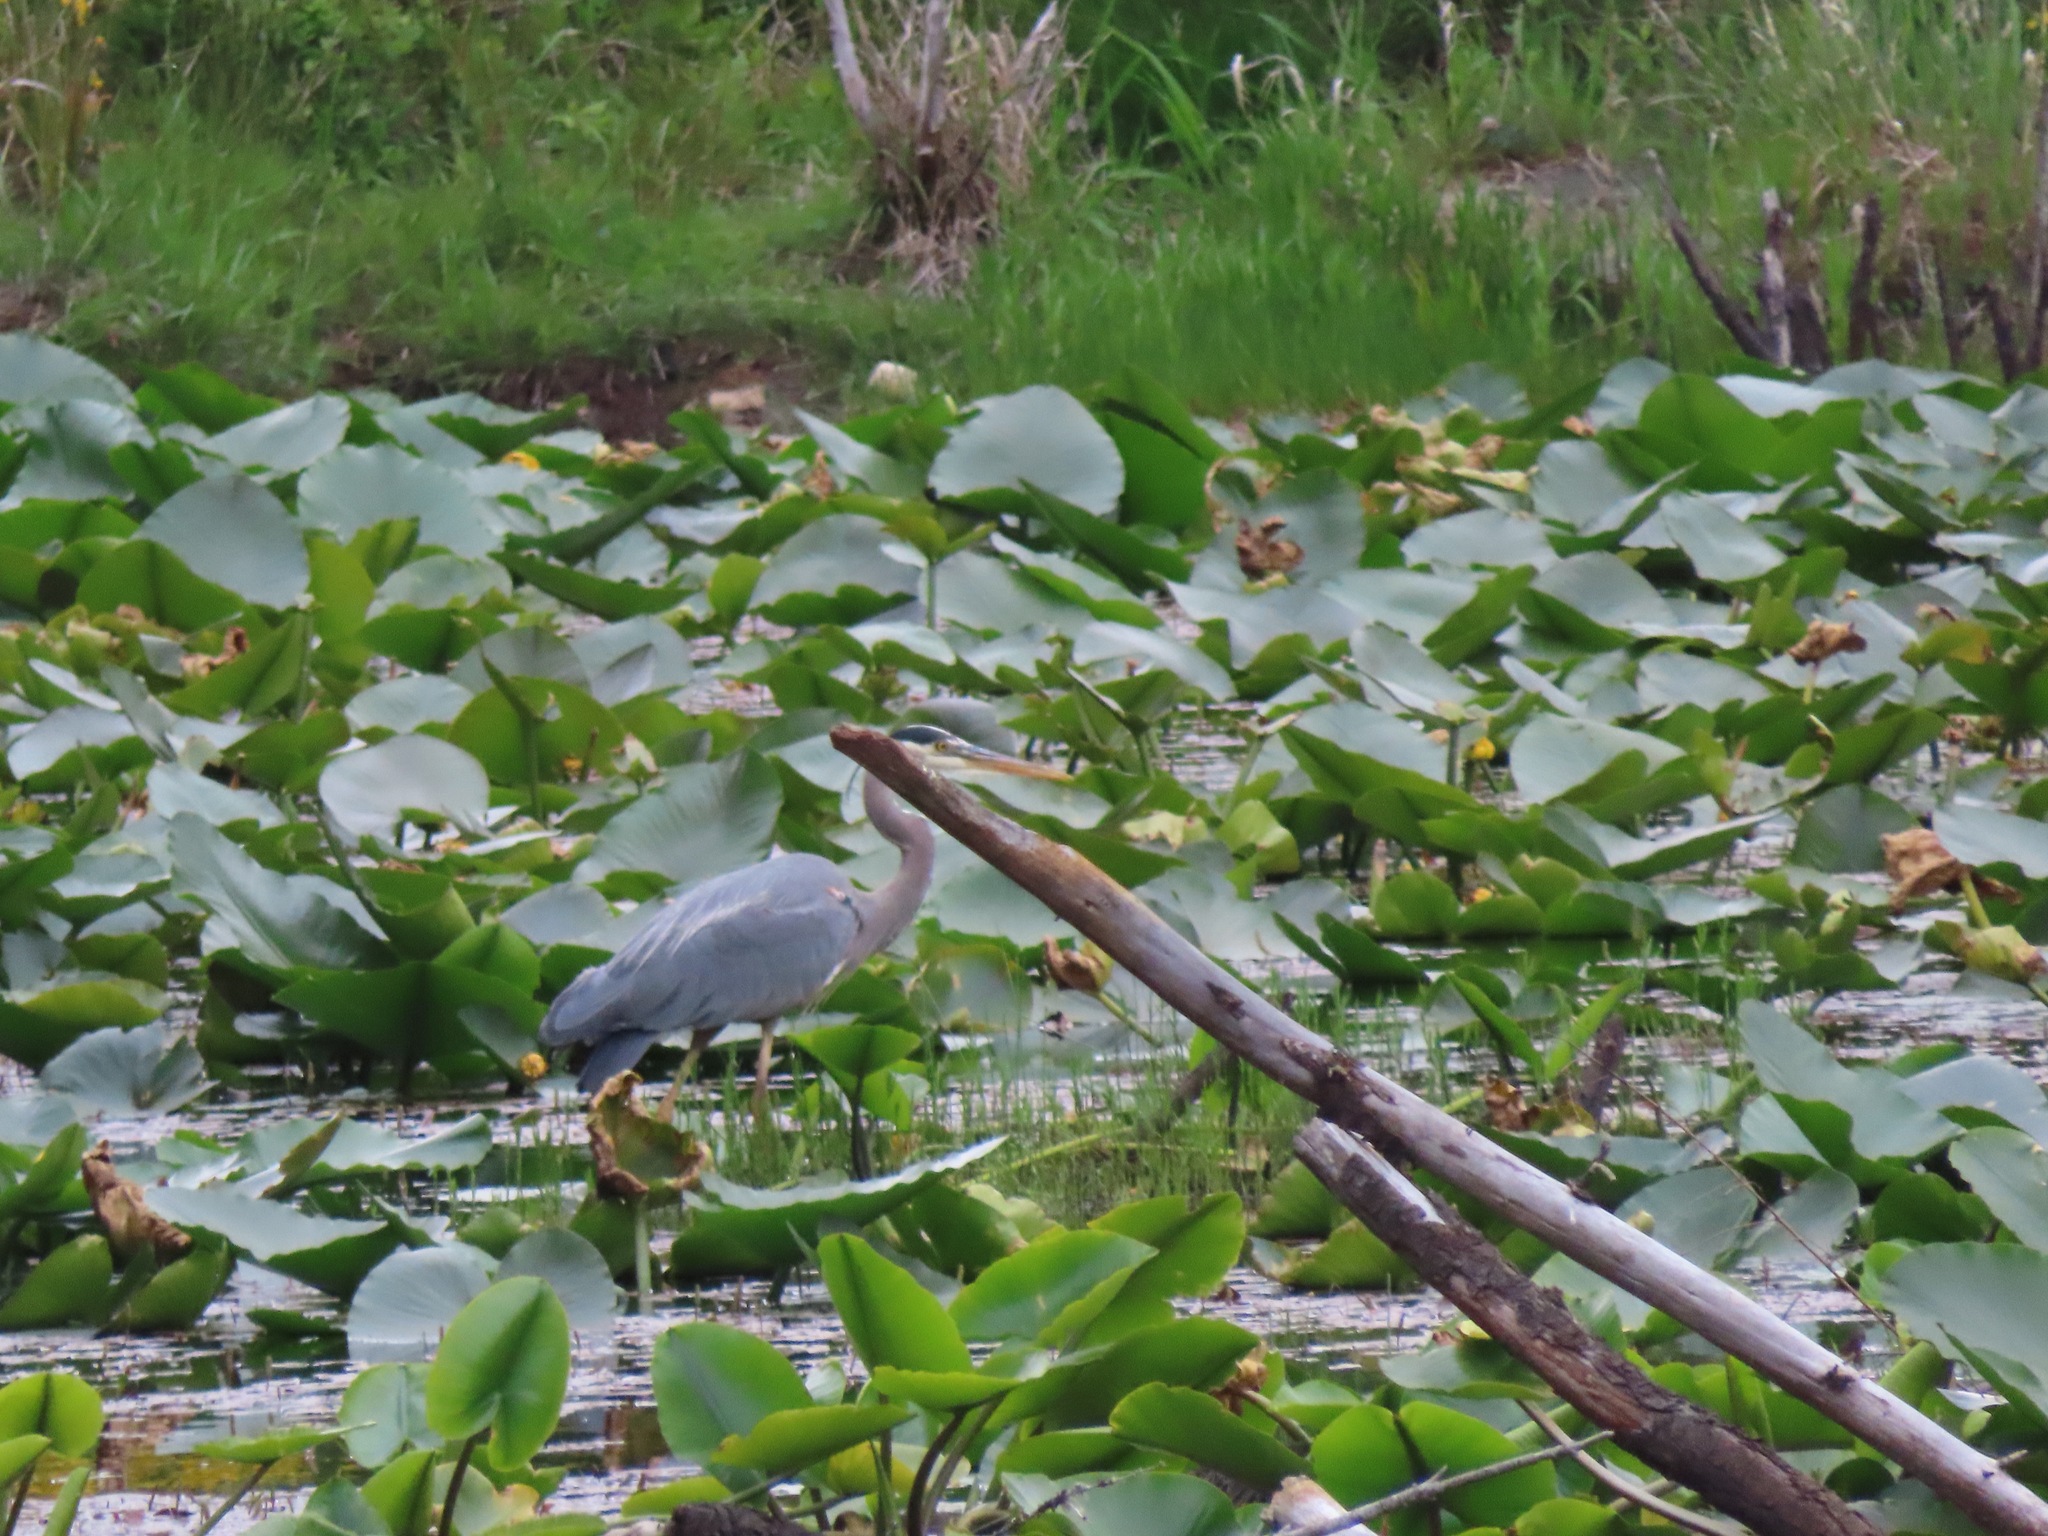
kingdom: Animalia
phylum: Chordata
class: Aves
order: Pelecaniformes
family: Ardeidae
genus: Ardea
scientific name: Ardea herodias
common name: Great blue heron
